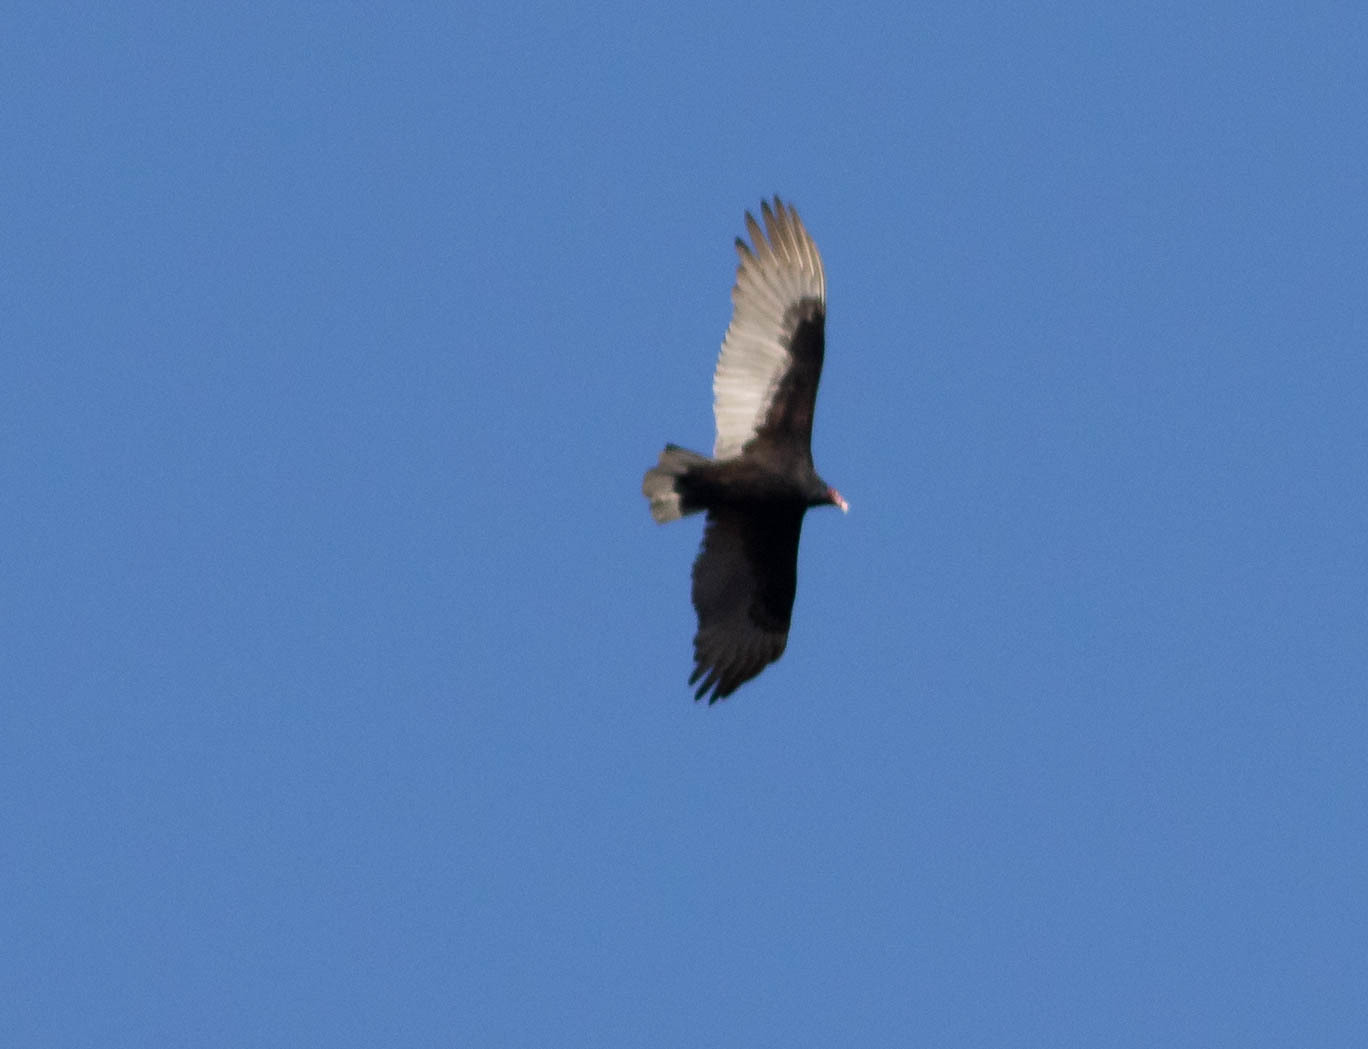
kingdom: Animalia
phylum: Chordata
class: Aves
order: Accipitriformes
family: Cathartidae
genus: Cathartes
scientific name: Cathartes aura
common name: Turkey vulture
